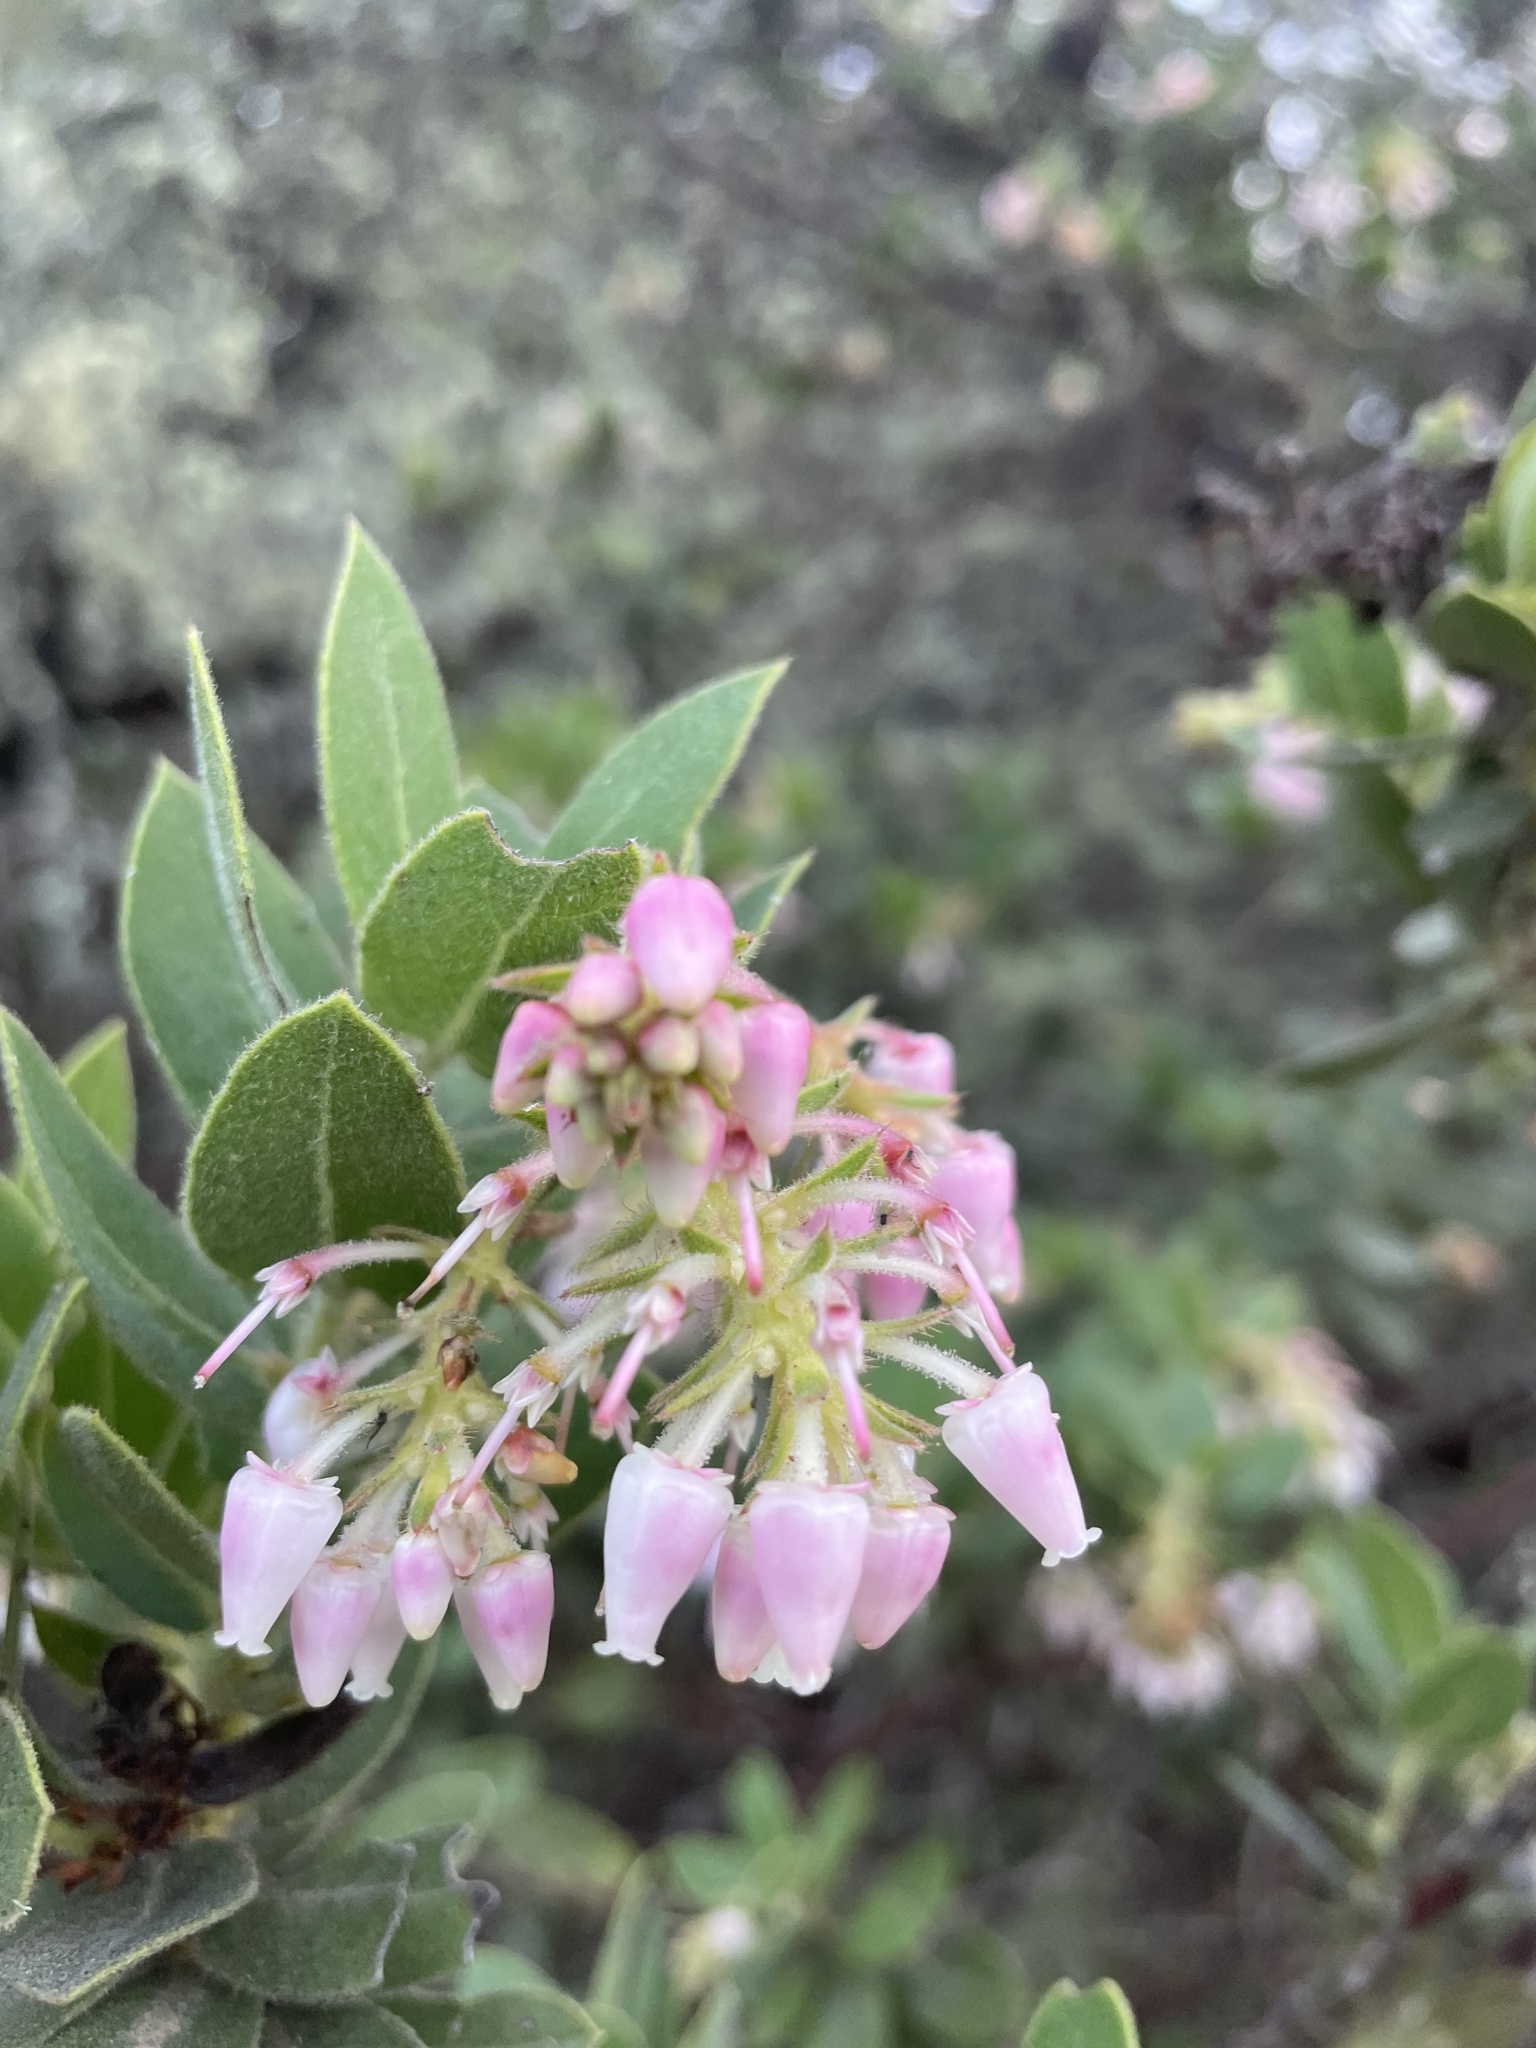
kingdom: Plantae
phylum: Tracheophyta
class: Magnoliopsida
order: Ericales
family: Ericaceae
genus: Arctostaphylos
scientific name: Arctostaphylos regismontana
